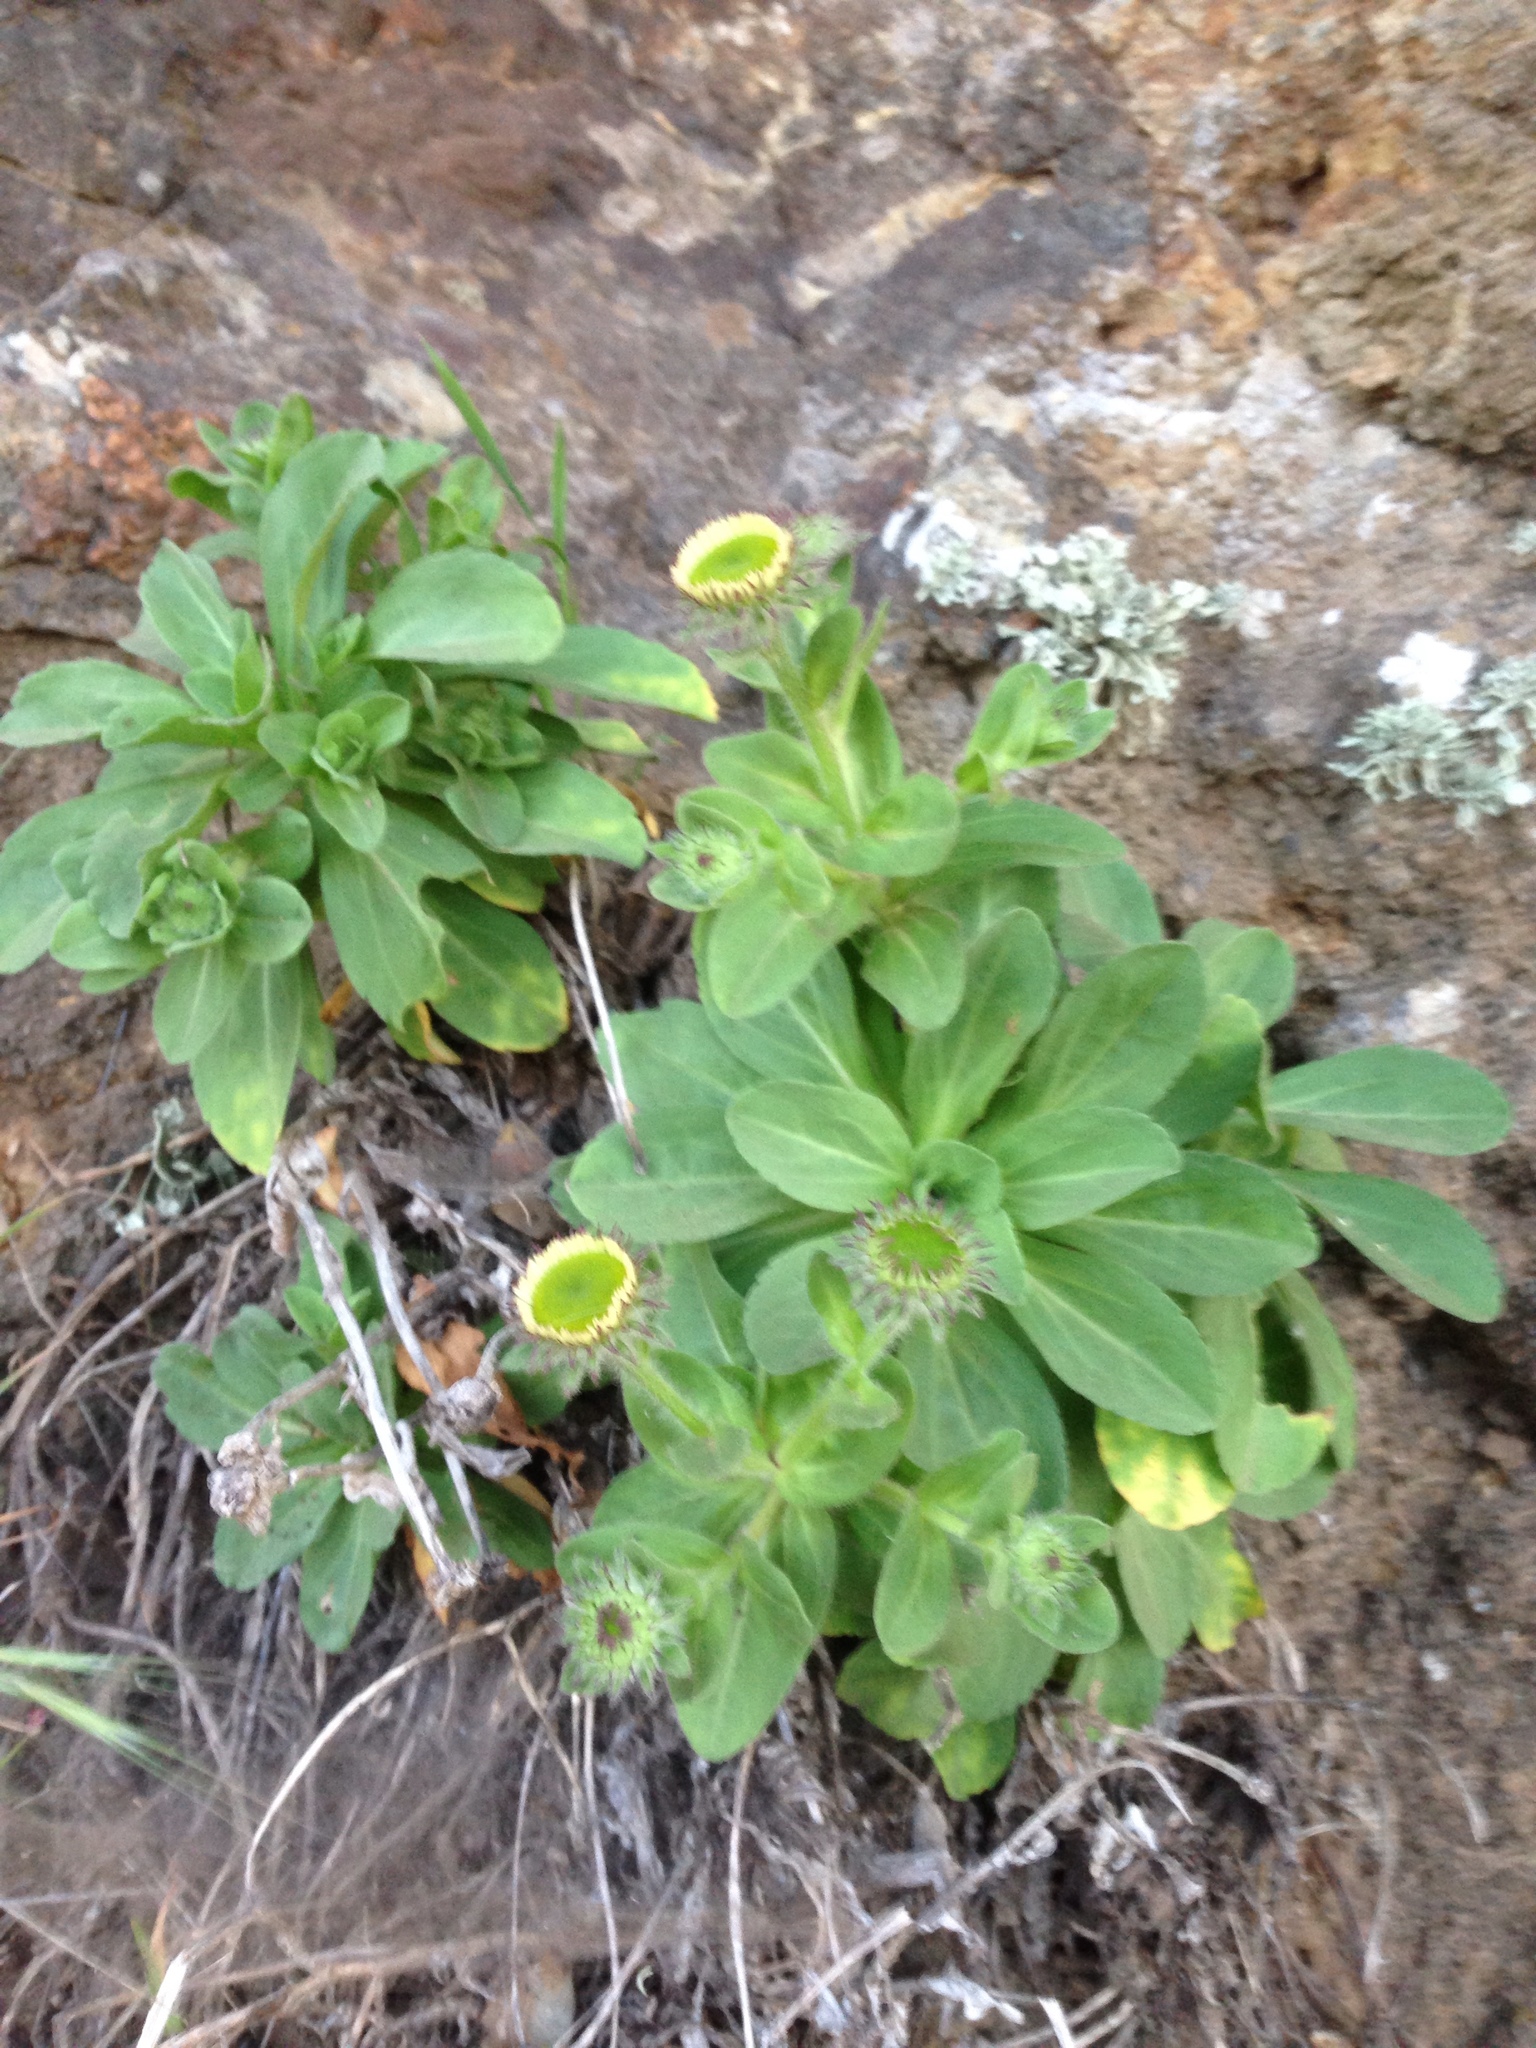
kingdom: Plantae
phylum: Tracheophyta
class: Magnoliopsida
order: Asterales
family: Asteraceae
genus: Erigeron
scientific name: Erigeron glaucus
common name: Seaside daisy
